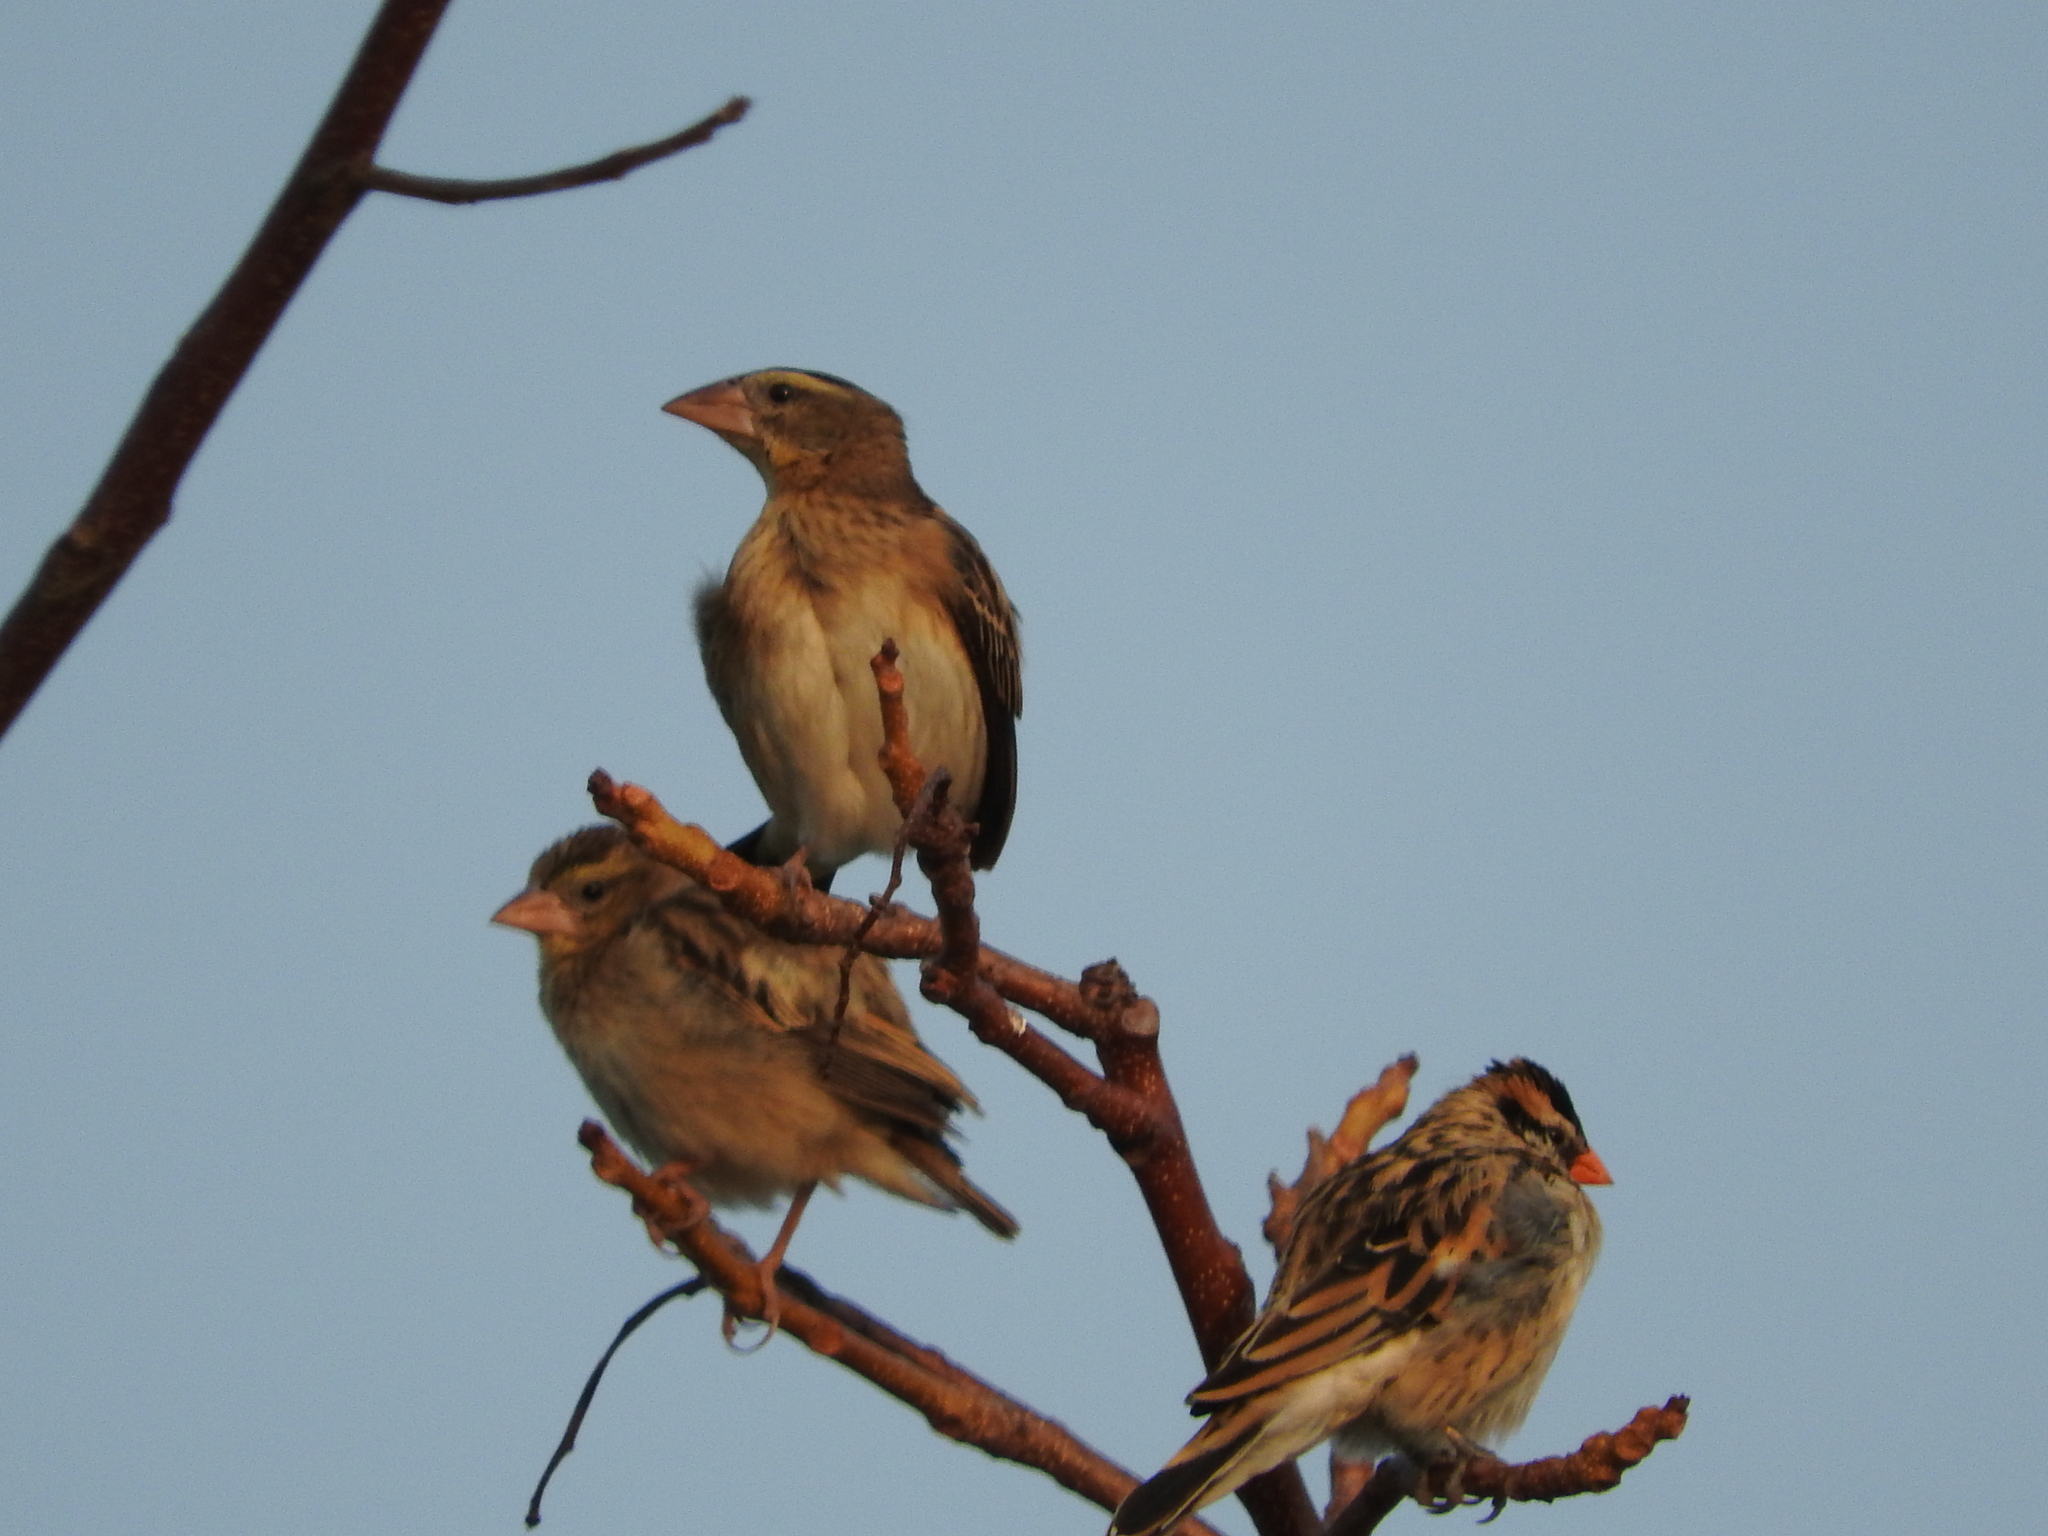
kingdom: Animalia
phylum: Chordata
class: Aves
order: Passeriformes
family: Viduidae
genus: Vidua
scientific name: Vidua macroura
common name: Pin-tailed whydah
